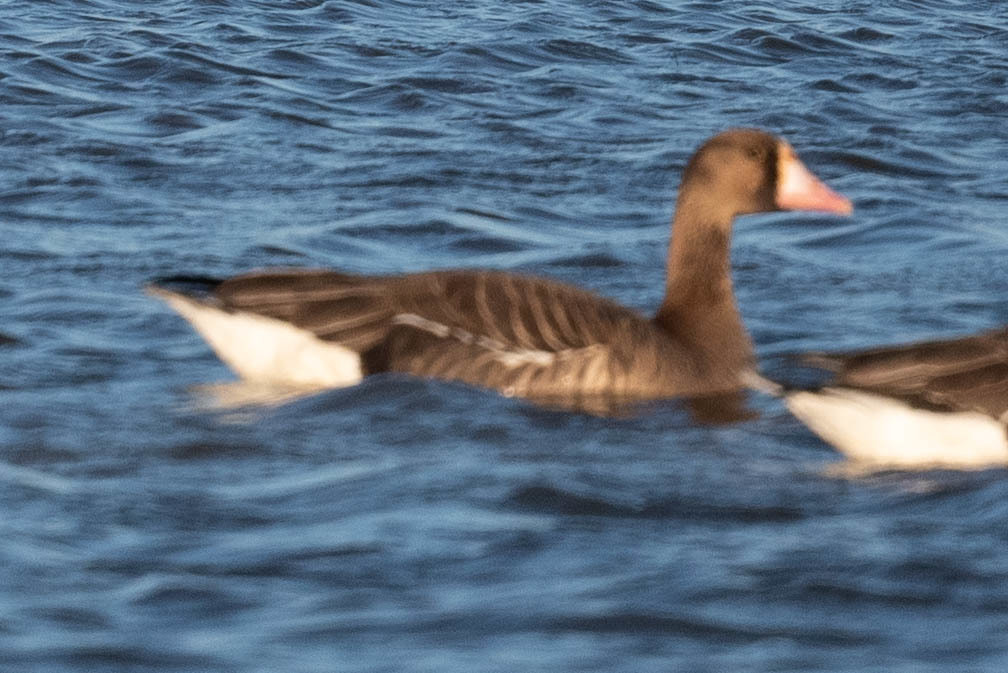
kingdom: Animalia
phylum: Chordata
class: Aves
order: Anseriformes
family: Anatidae
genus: Anser
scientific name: Anser albifrons
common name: Greater white-fronted goose
